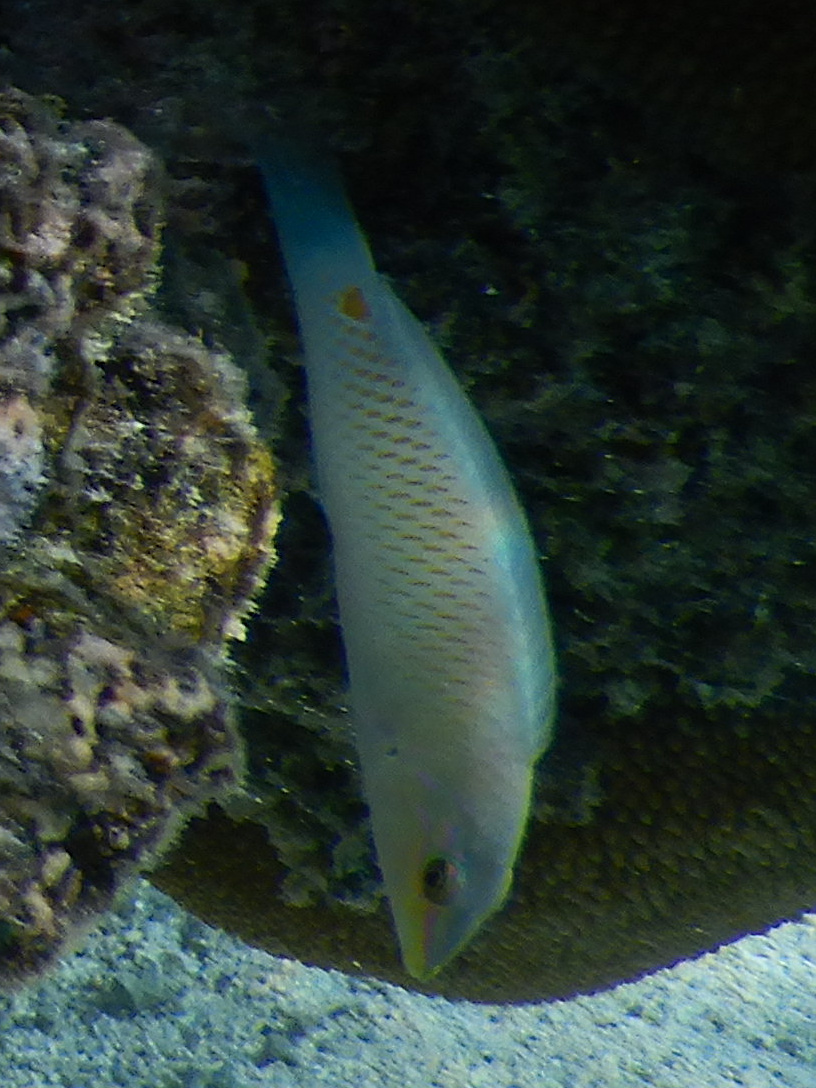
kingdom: Animalia
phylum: Chordata
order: Perciformes
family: Labridae
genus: Halichoeres
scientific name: Halichoeres trimaculatus
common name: Three-spot wrasse
